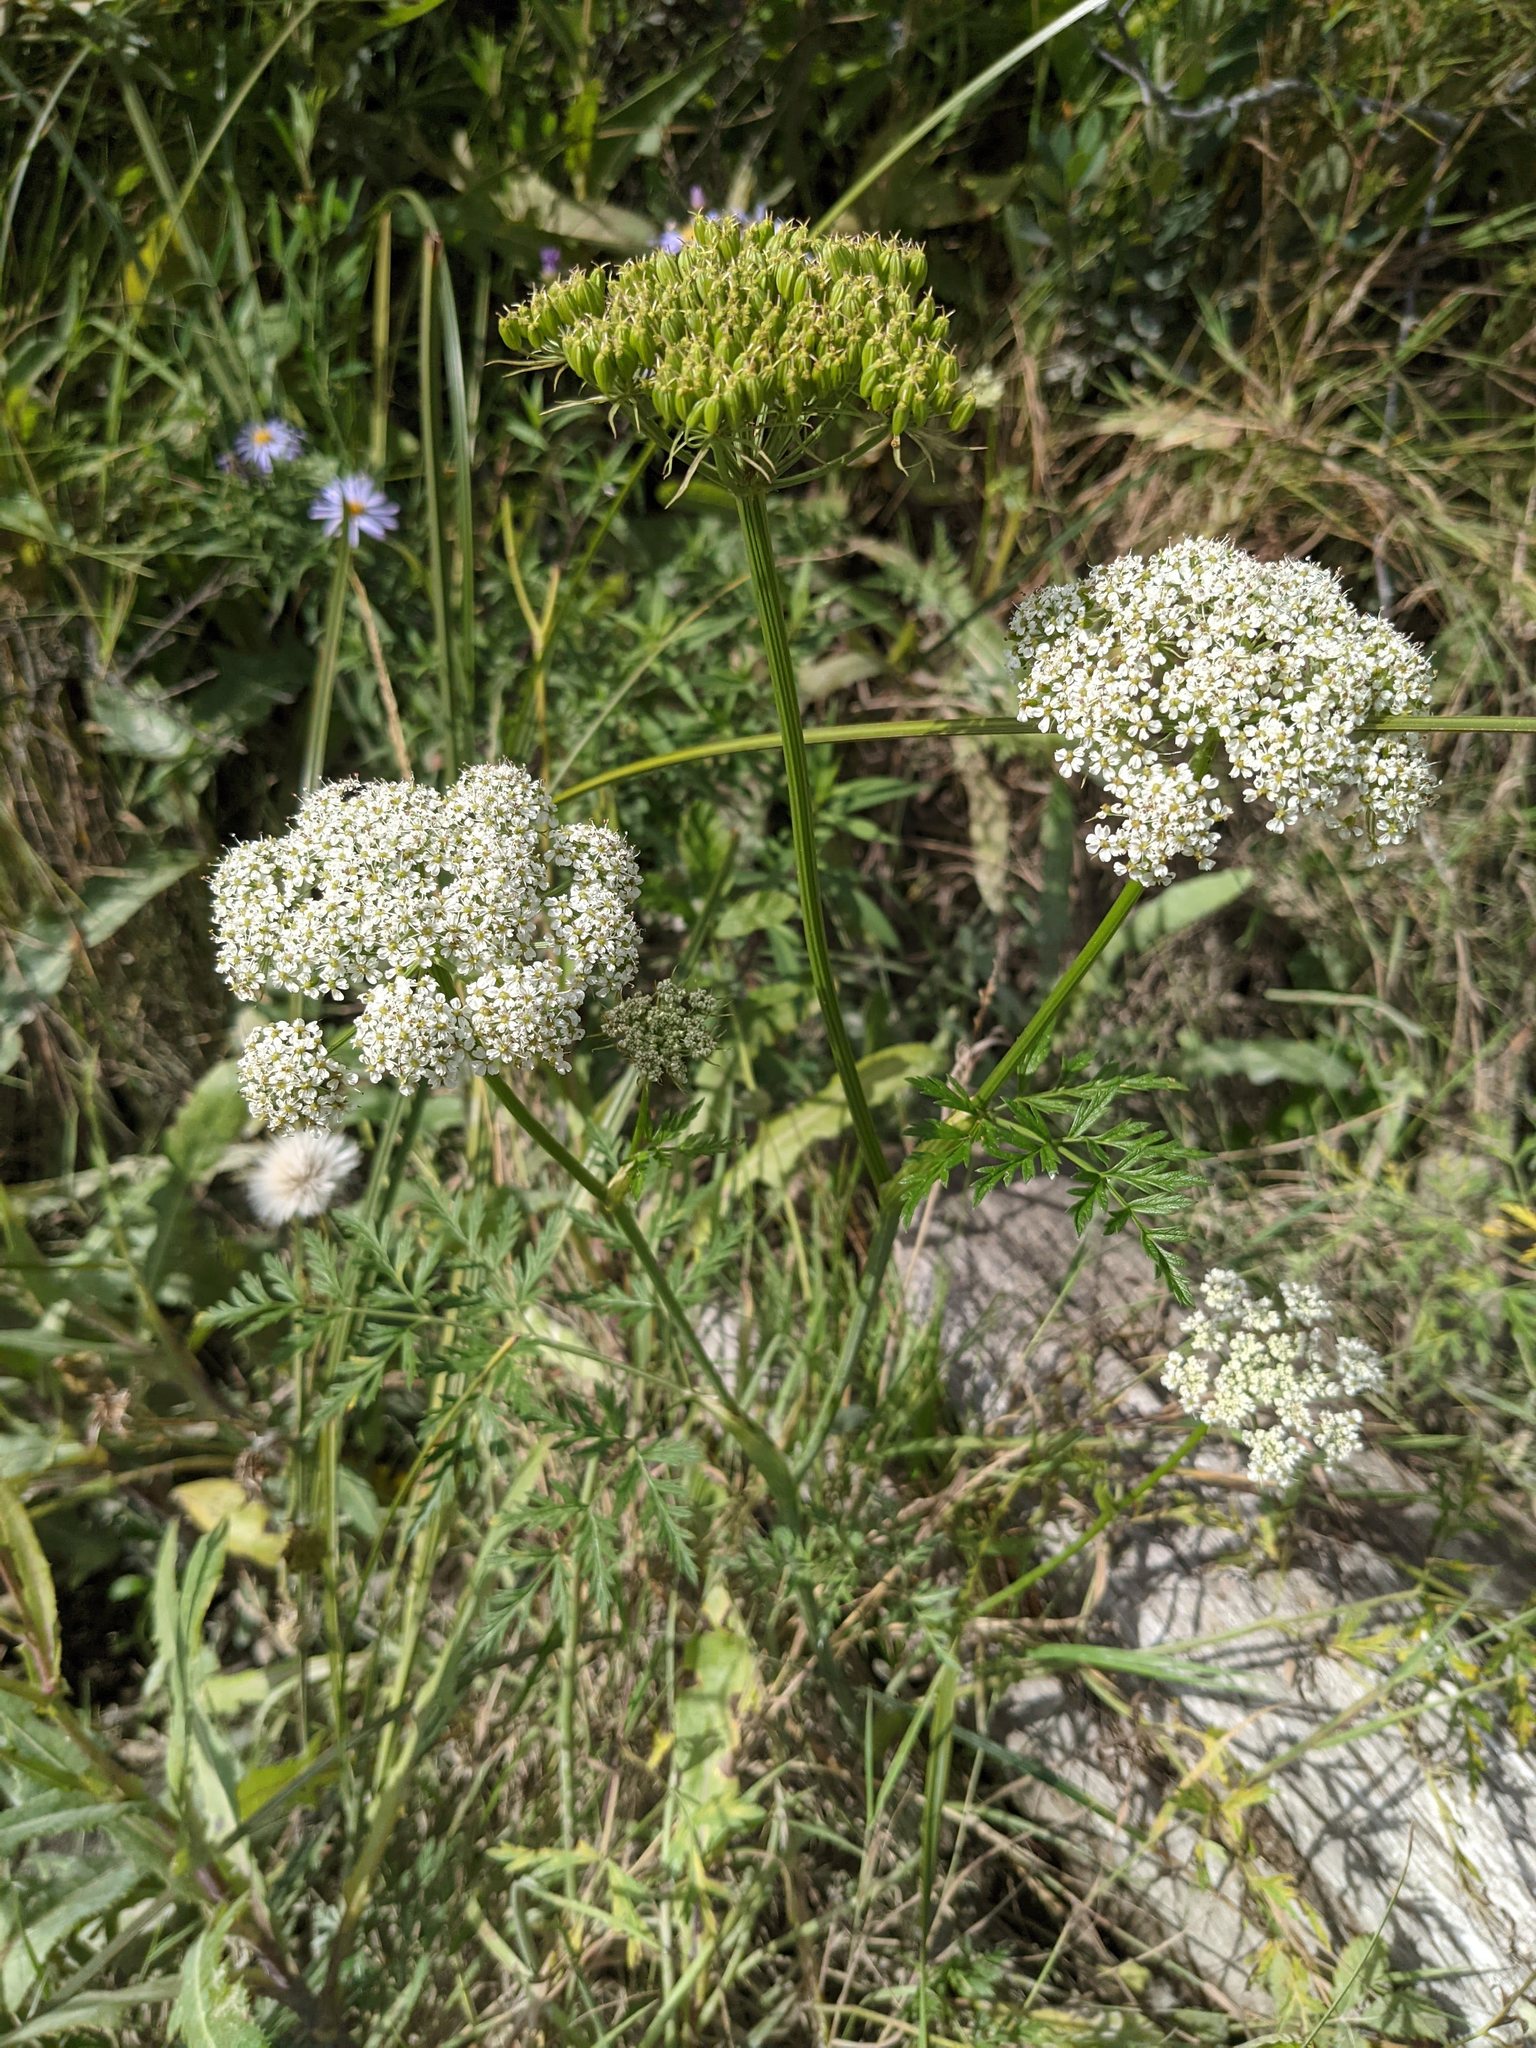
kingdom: Plantae
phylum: Tracheophyta
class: Magnoliopsida
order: Apiales
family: Apiaceae
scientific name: Apiaceae
